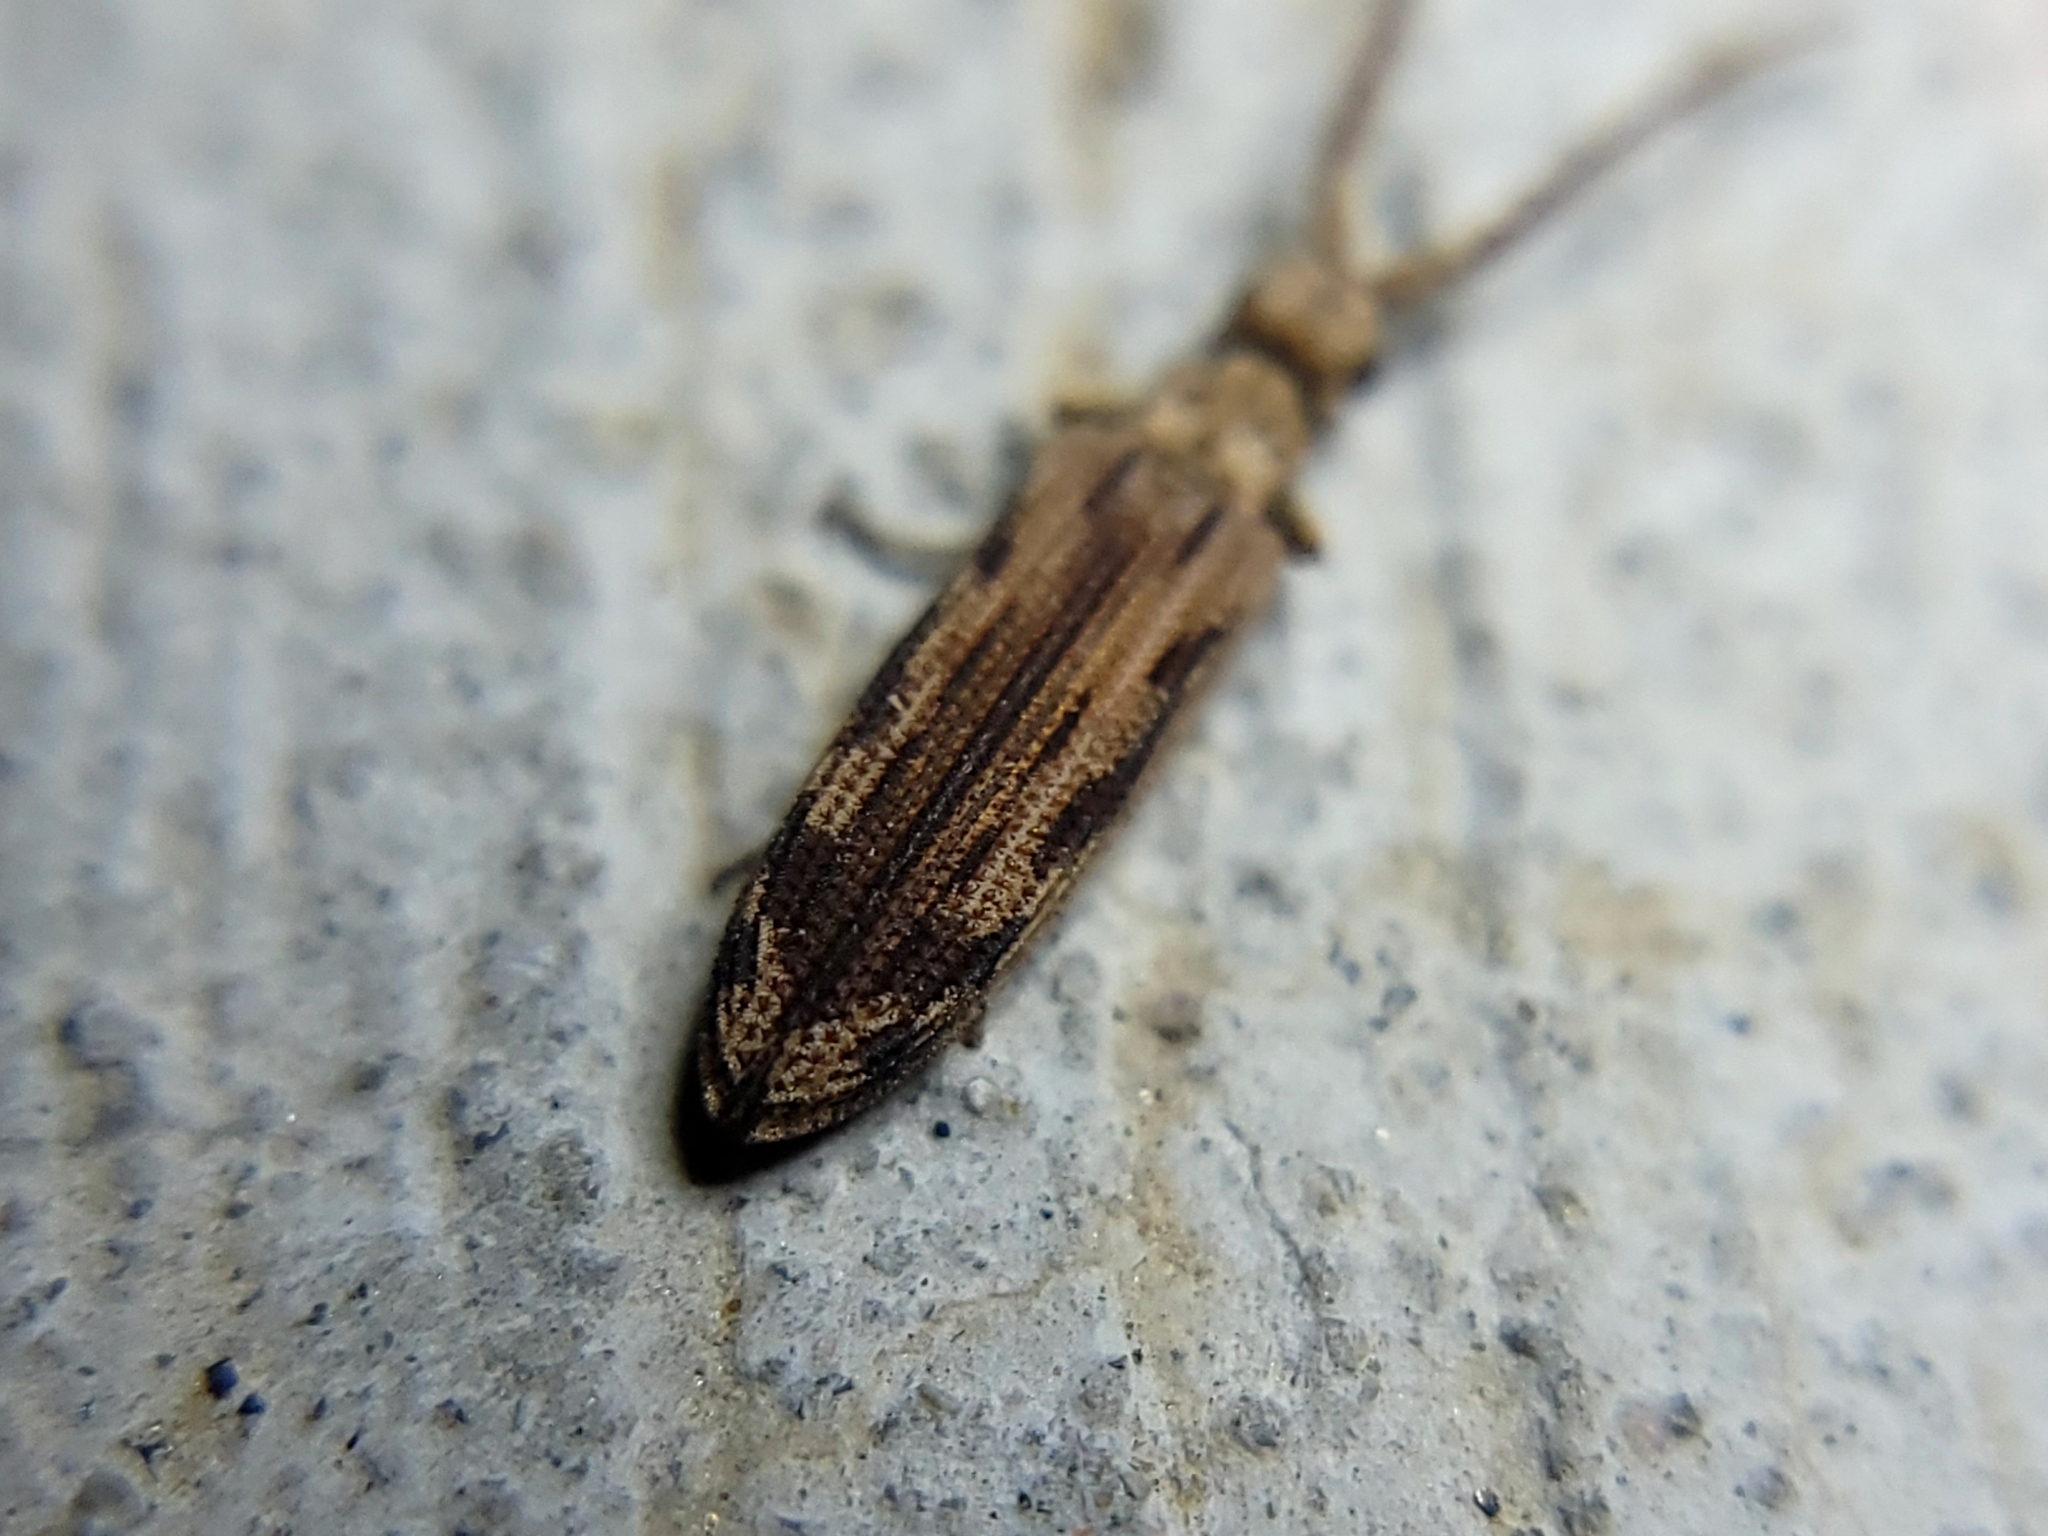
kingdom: Animalia
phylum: Arthropoda
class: Insecta
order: Coleoptera
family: Cupedidae
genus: Prolixocupes
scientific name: Prolixocupes lobiceps
